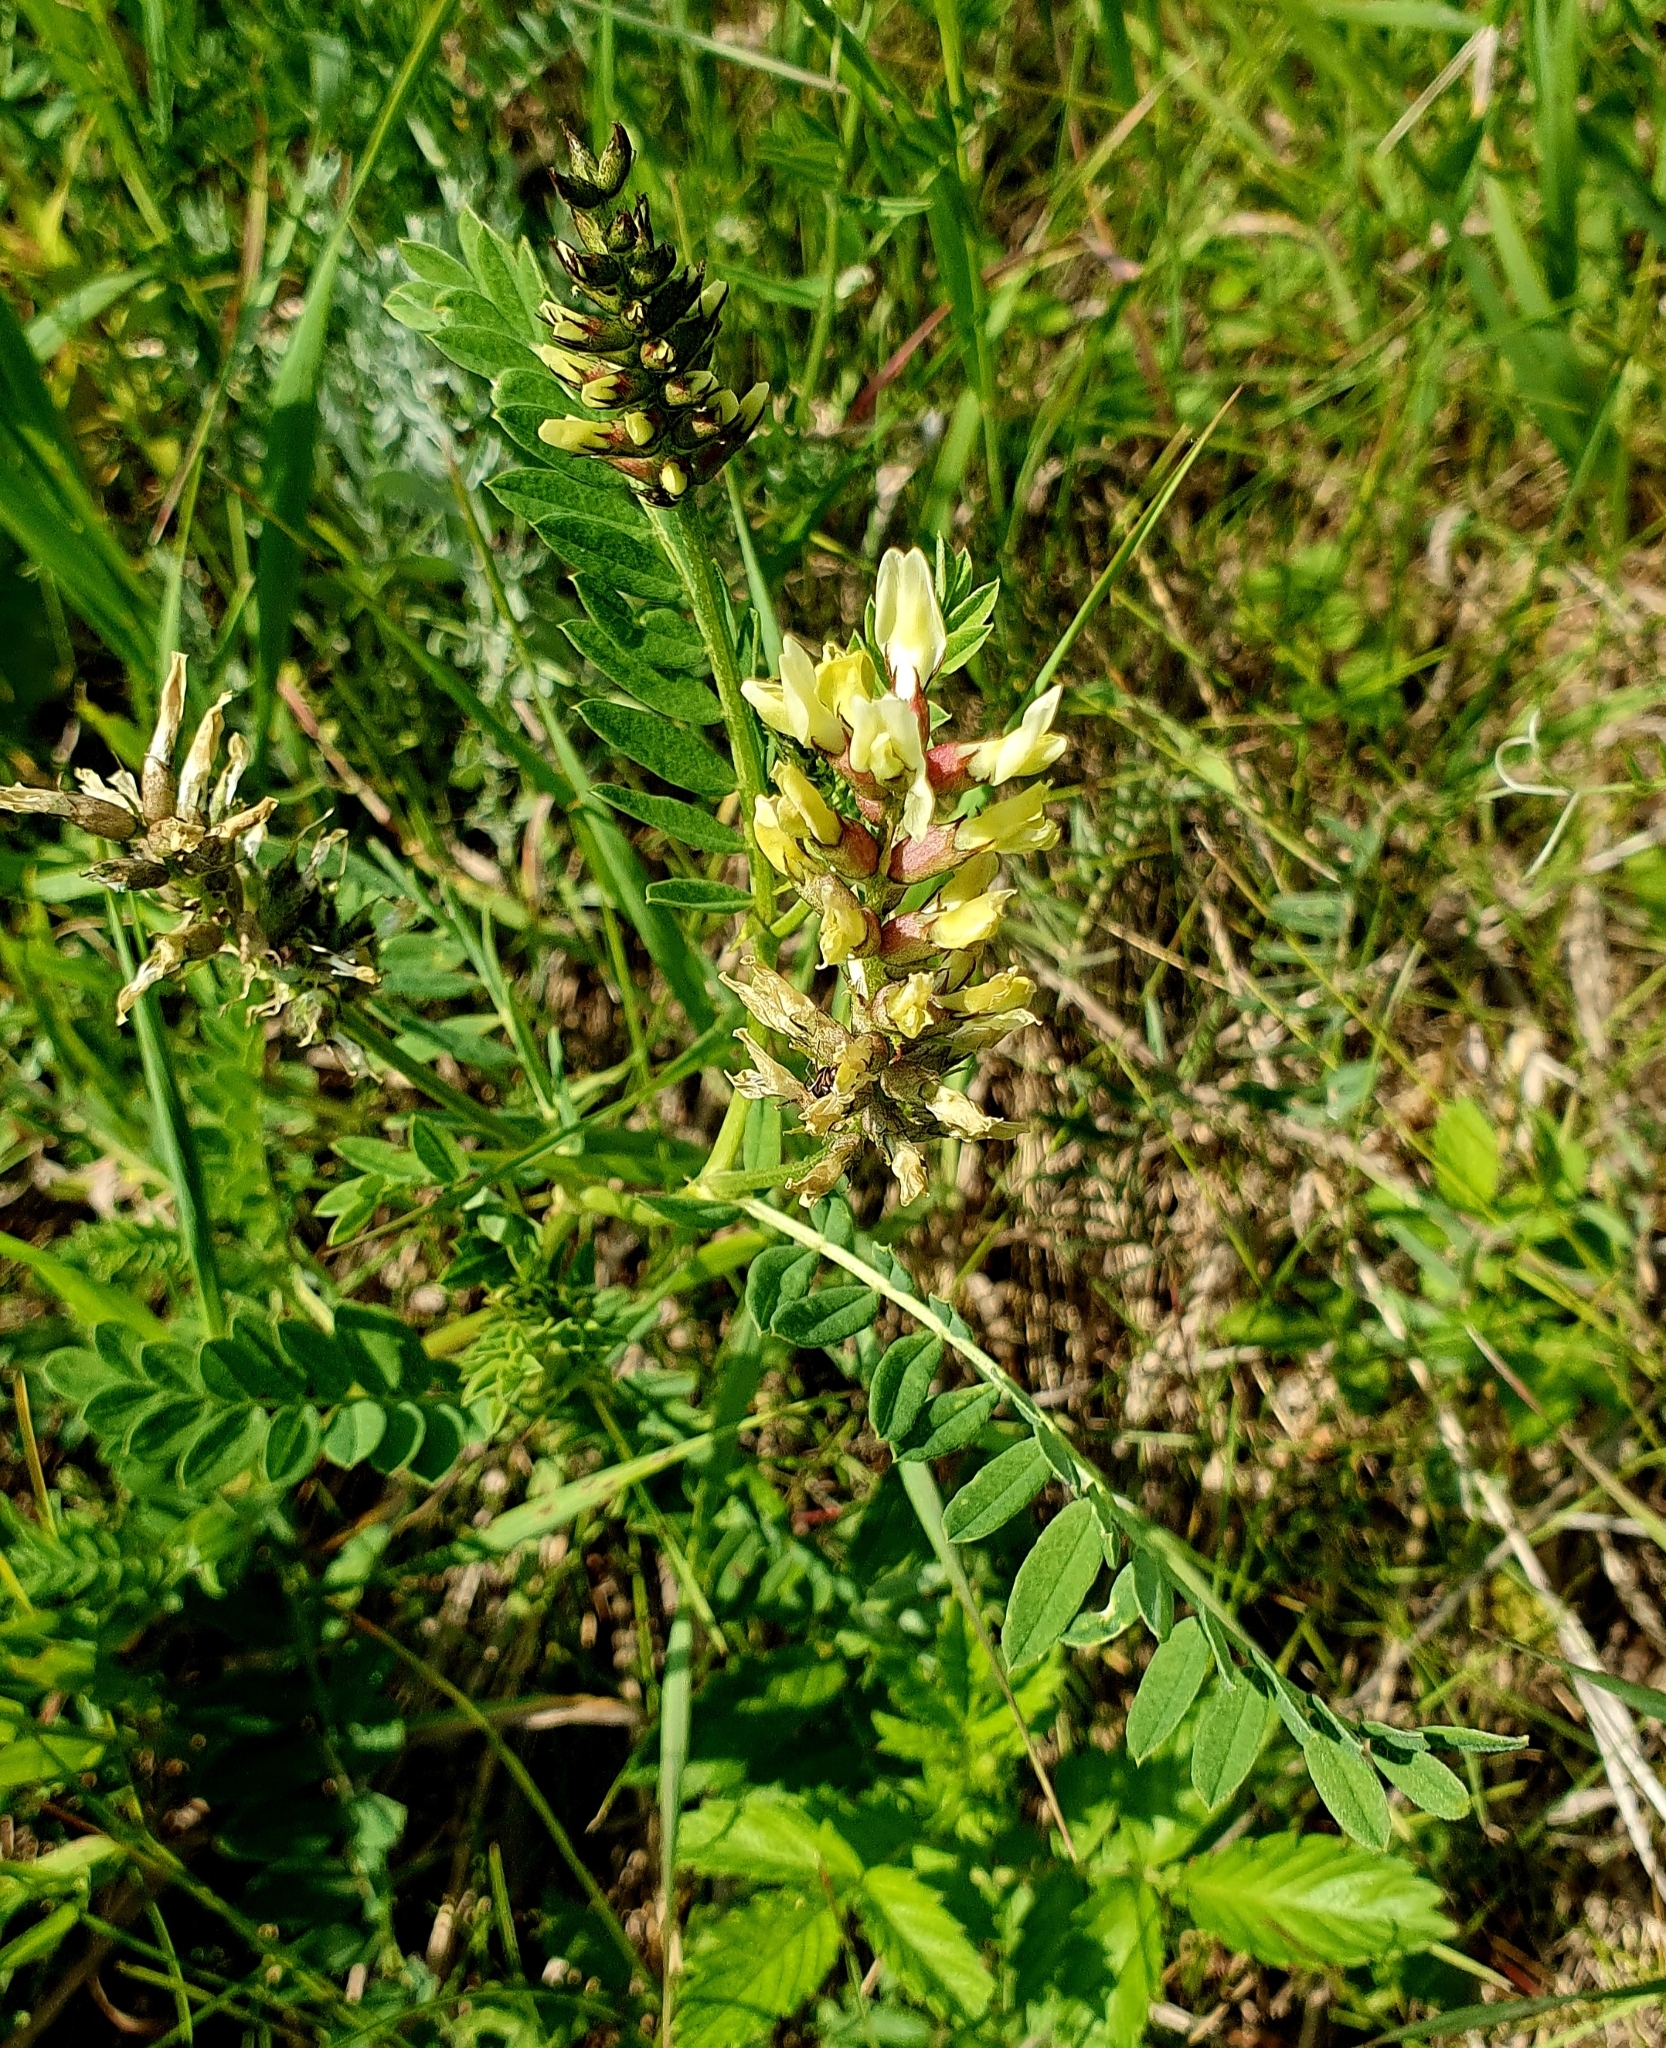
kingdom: Plantae
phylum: Tracheophyta
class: Magnoliopsida
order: Fabales
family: Fabaceae
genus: Astragalus
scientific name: Astragalus cicer
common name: Chick-pea milk-vetch
